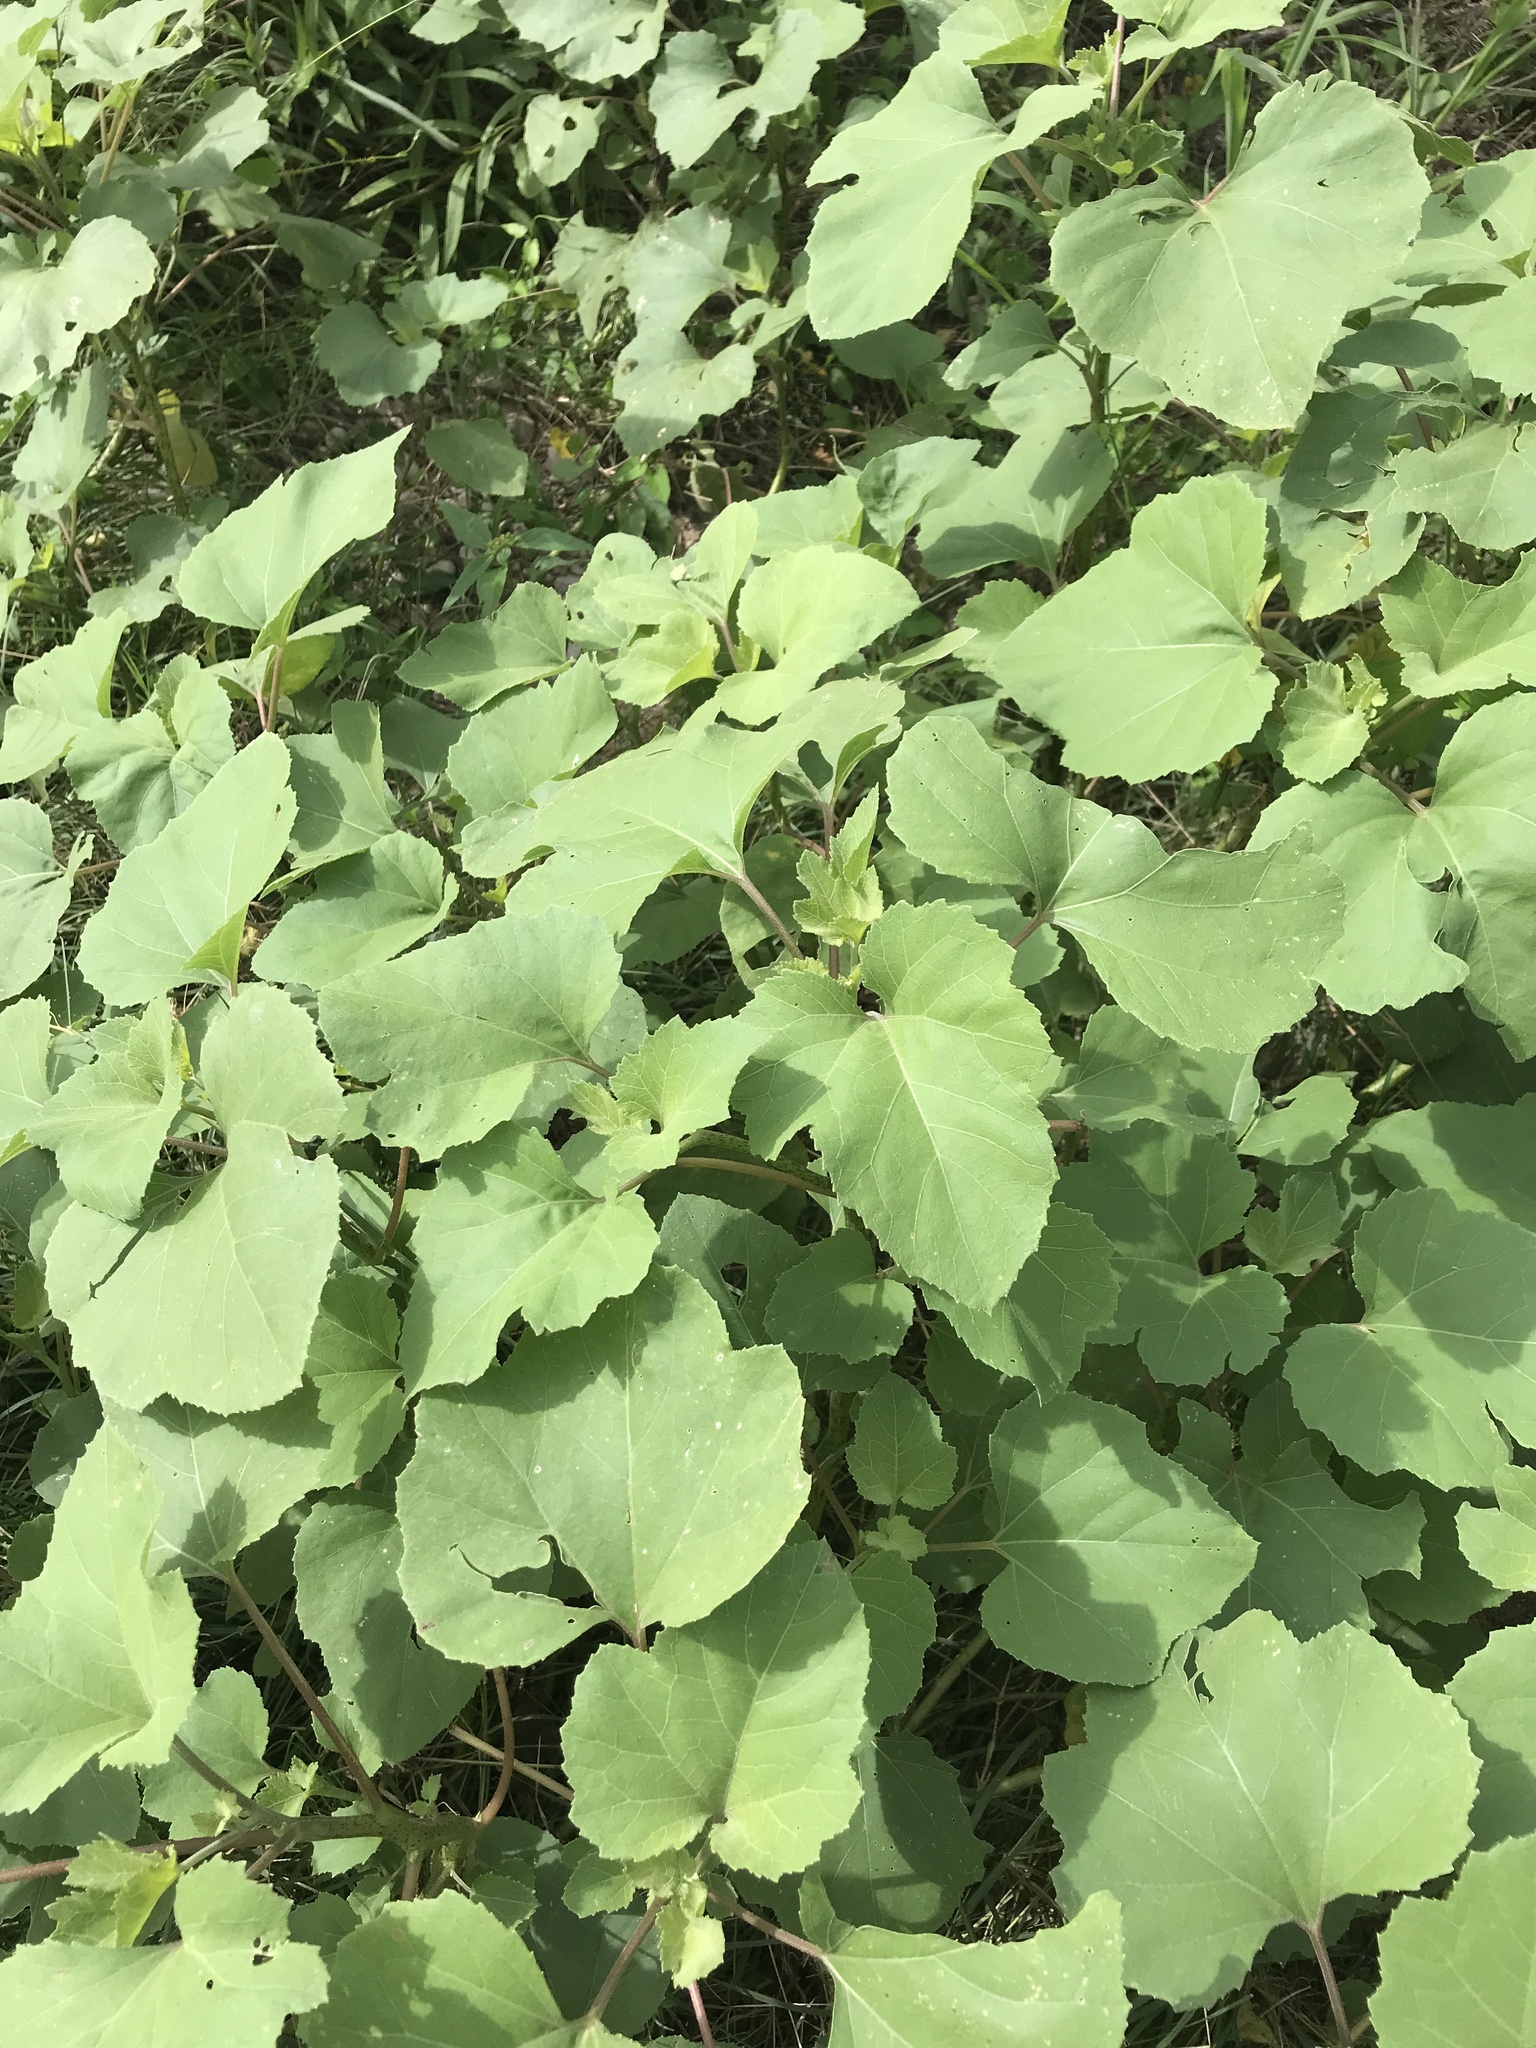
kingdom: Plantae
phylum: Tracheophyta
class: Magnoliopsida
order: Asterales
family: Asteraceae
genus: Xanthium
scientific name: Xanthium strumarium
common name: Rough cocklebur
